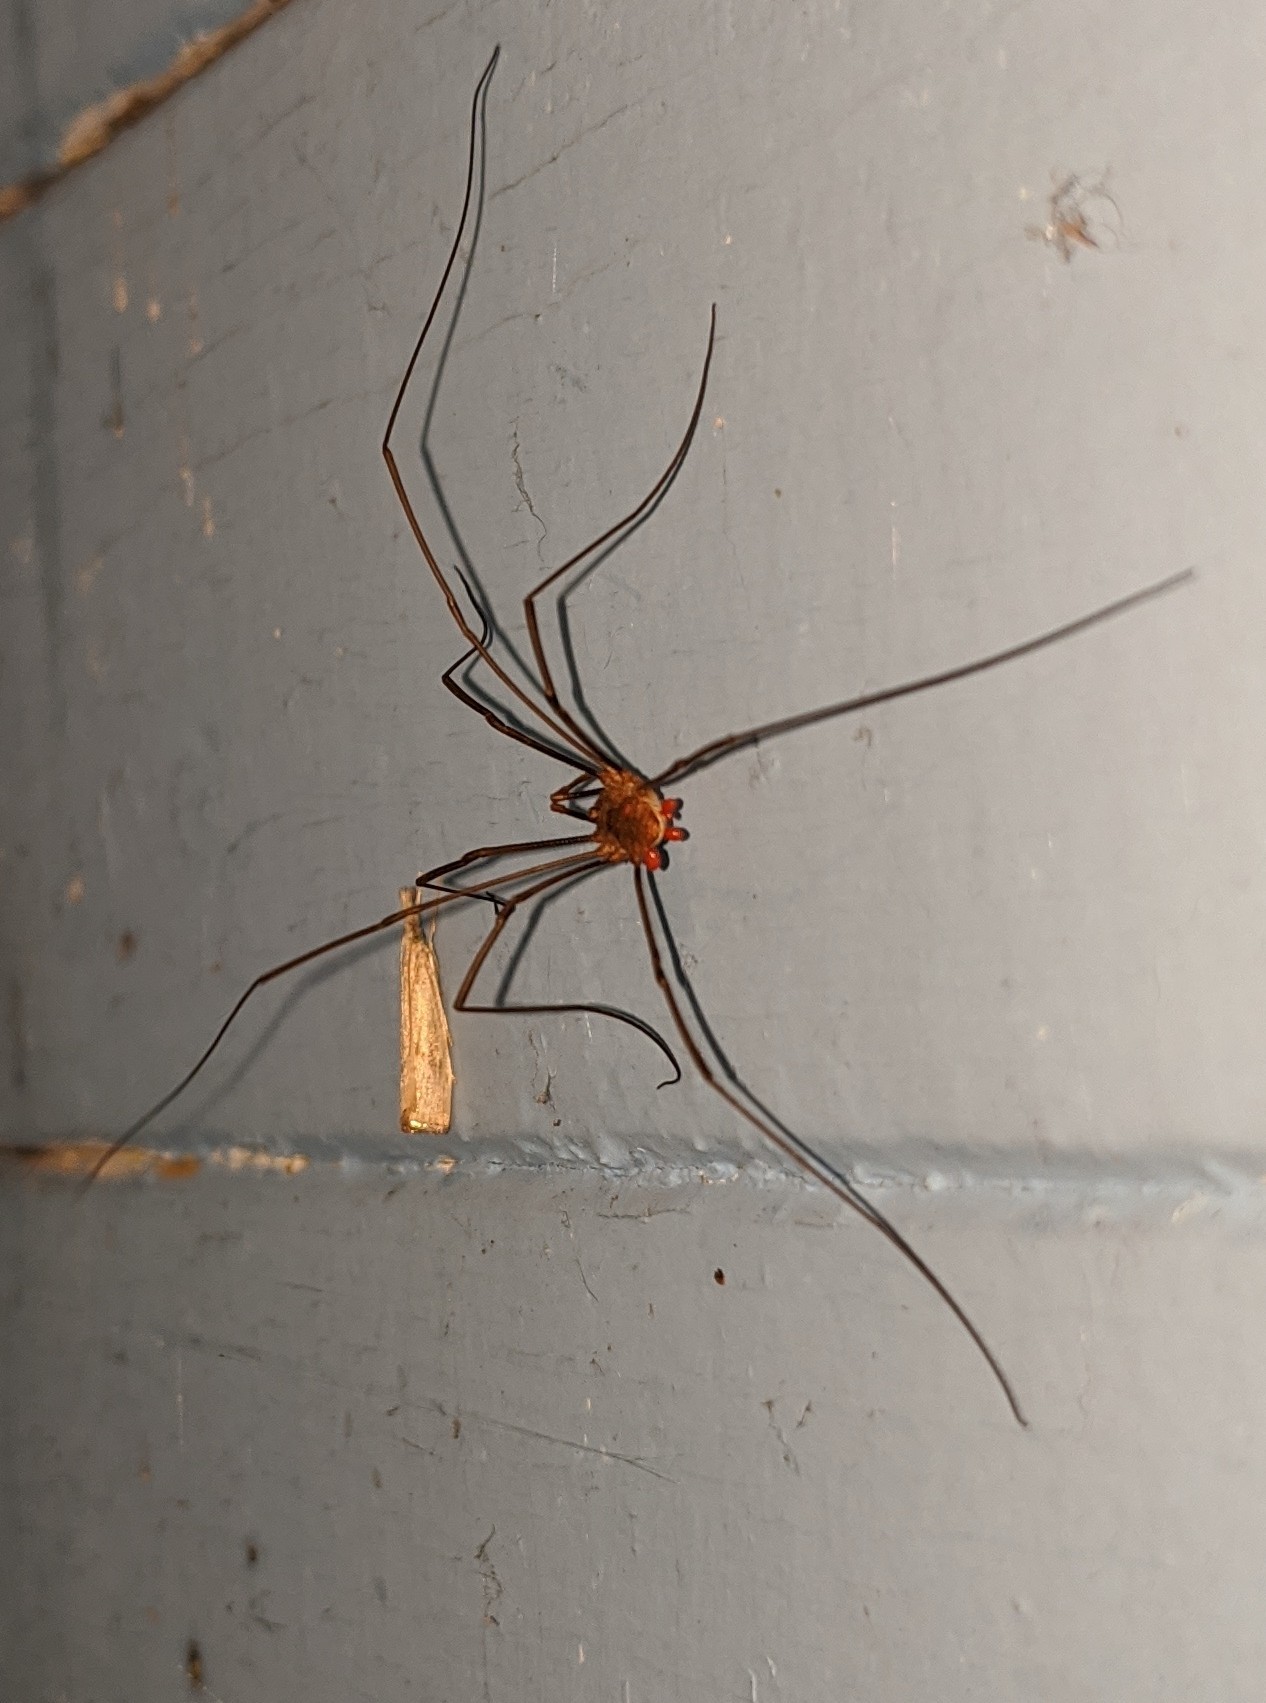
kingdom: Animalia
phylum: Arthropoda
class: Arachnida
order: Opiliones
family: Phalangiidae
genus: Phalangium
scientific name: Phalangium opilio
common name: Daddy longleg
